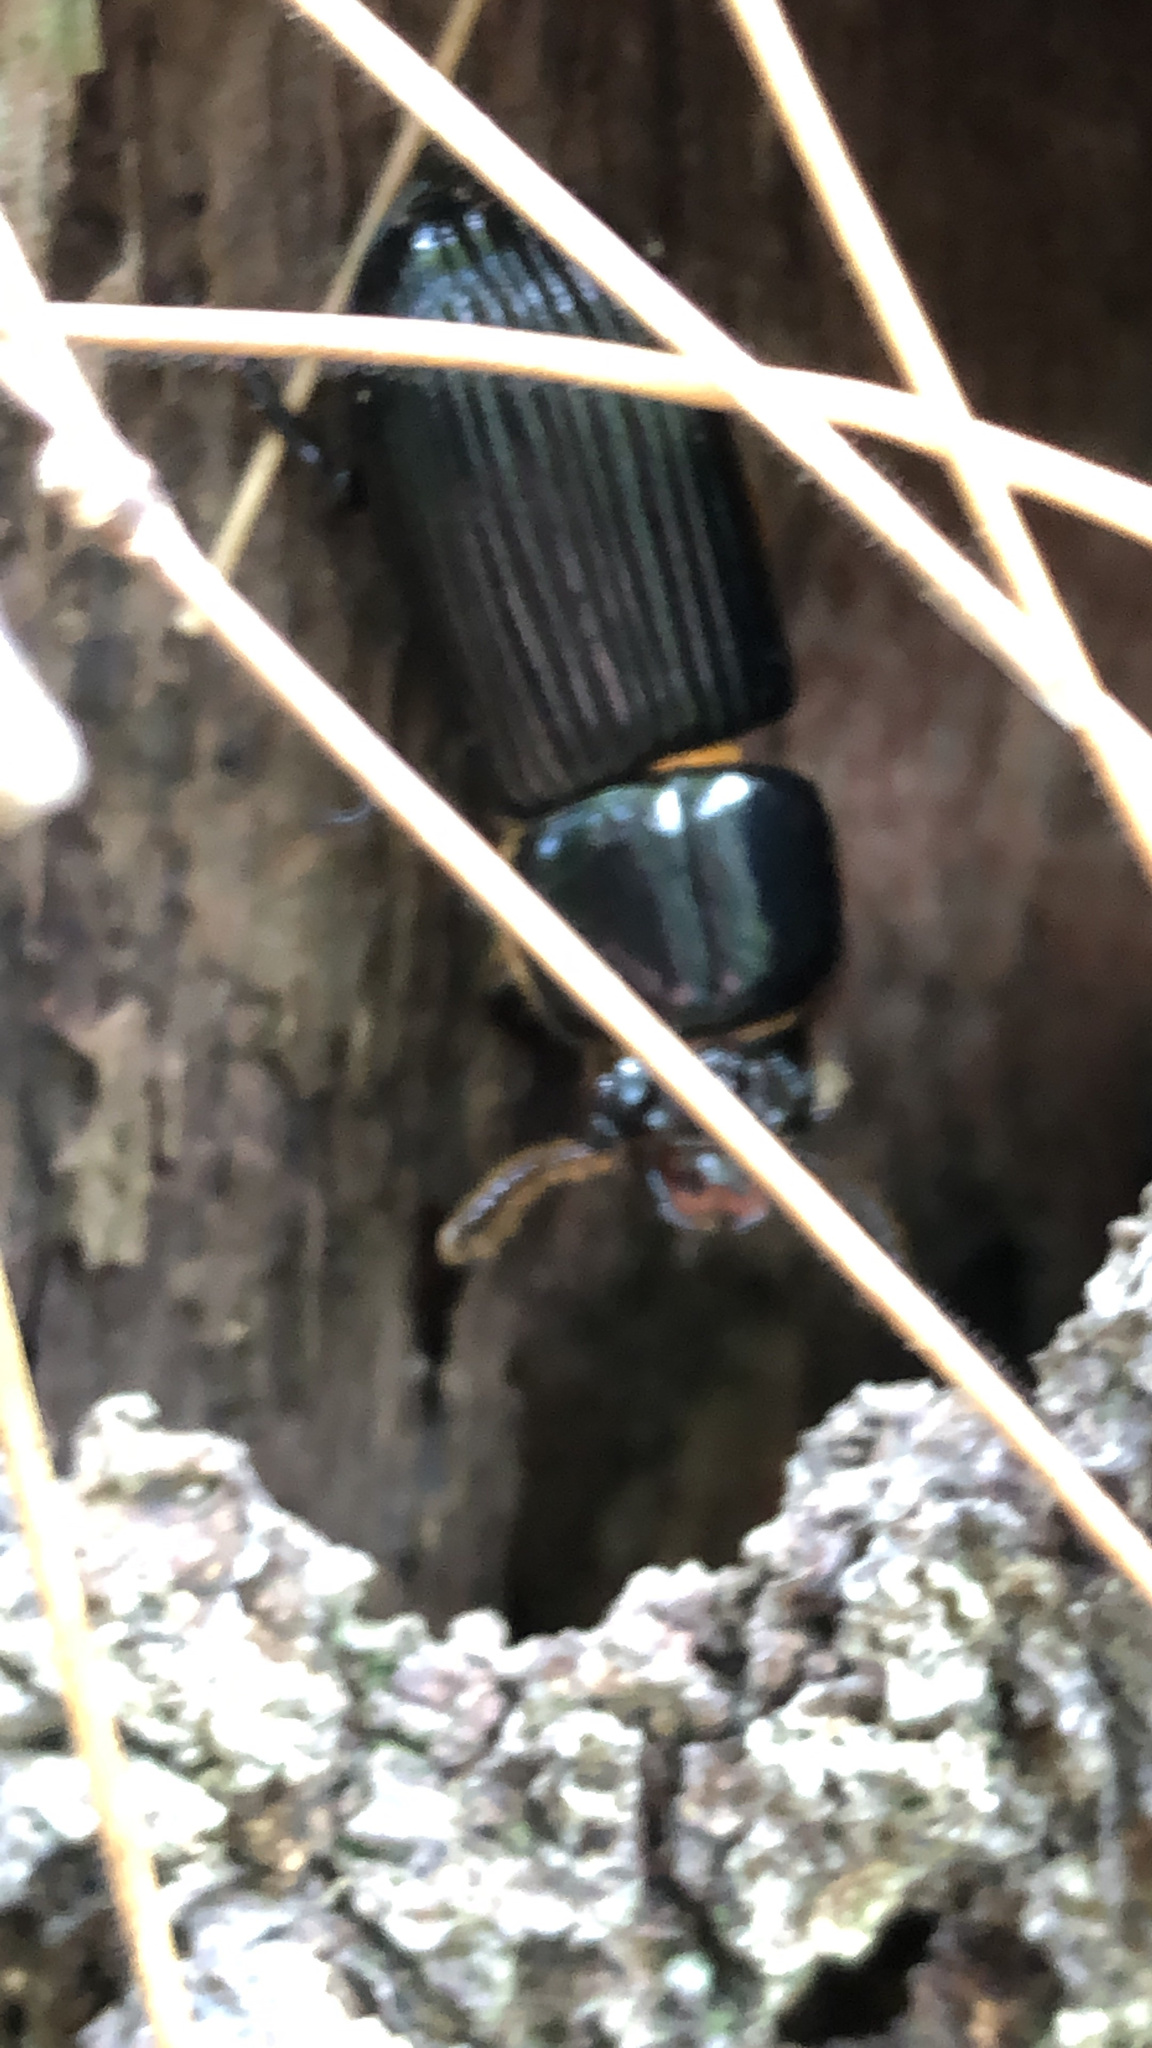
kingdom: Animalia
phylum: Arthropoda
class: Insecta
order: Coleoptera
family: Passalidae
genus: Odontotaenius
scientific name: Odontotaenius disjunctus
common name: Patent leather beetle
